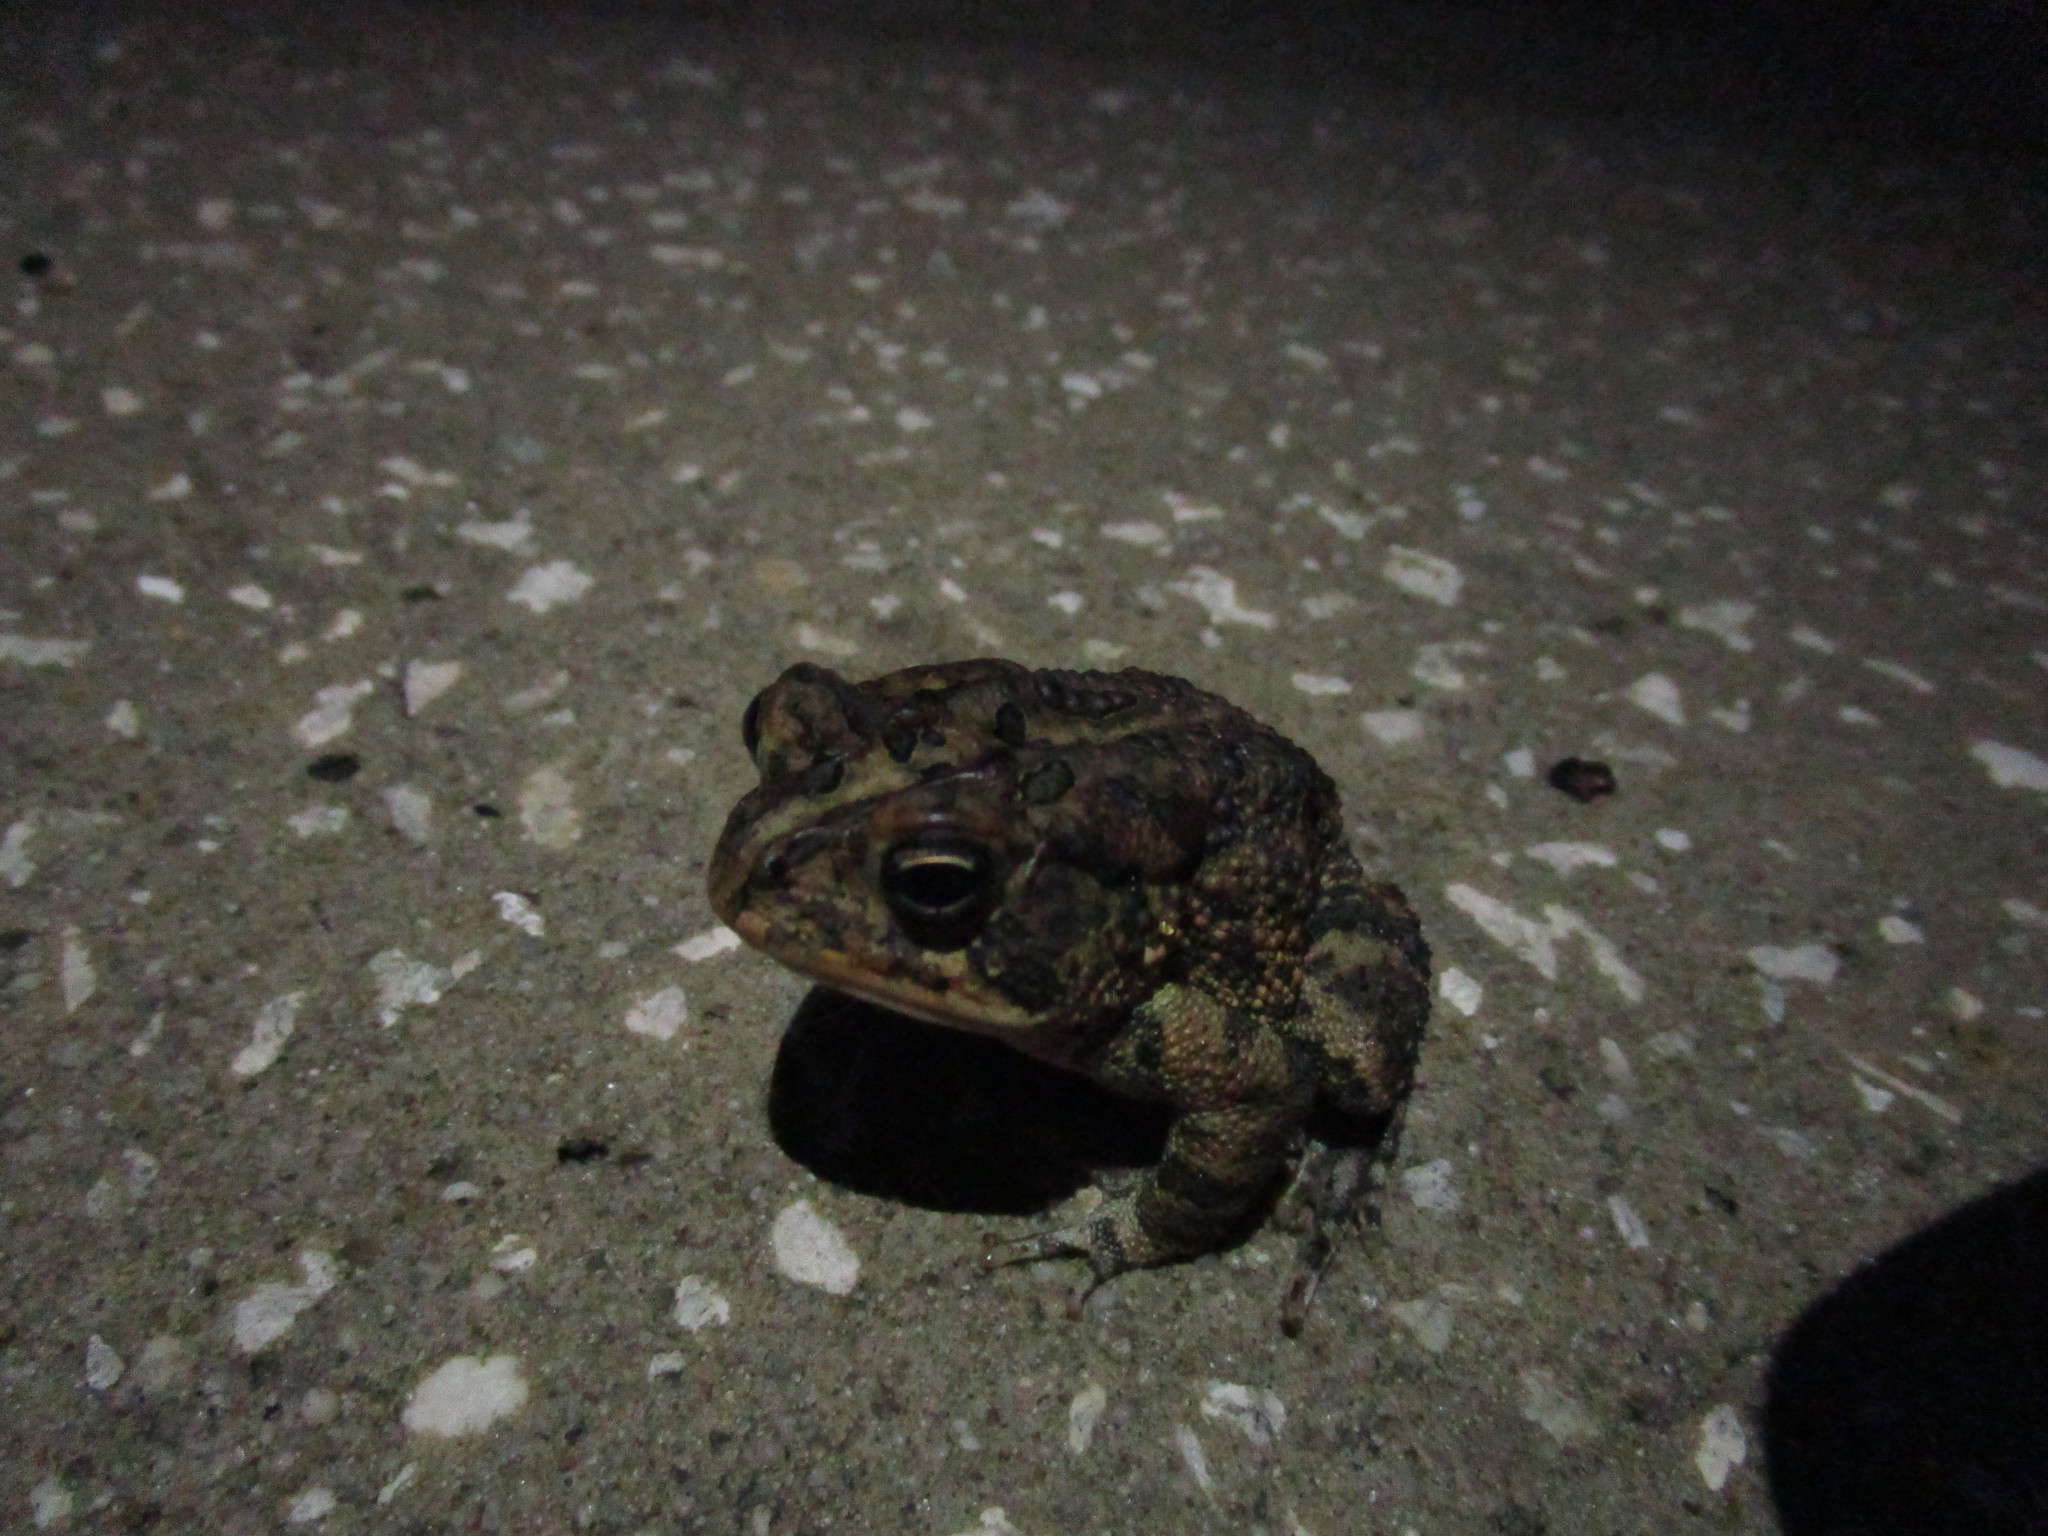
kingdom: Animalia
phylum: Chordata
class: Amphibia
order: Anura
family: Bufonidae
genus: Anaxyrus
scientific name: Anaxyrus terrestris
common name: Southern toad
